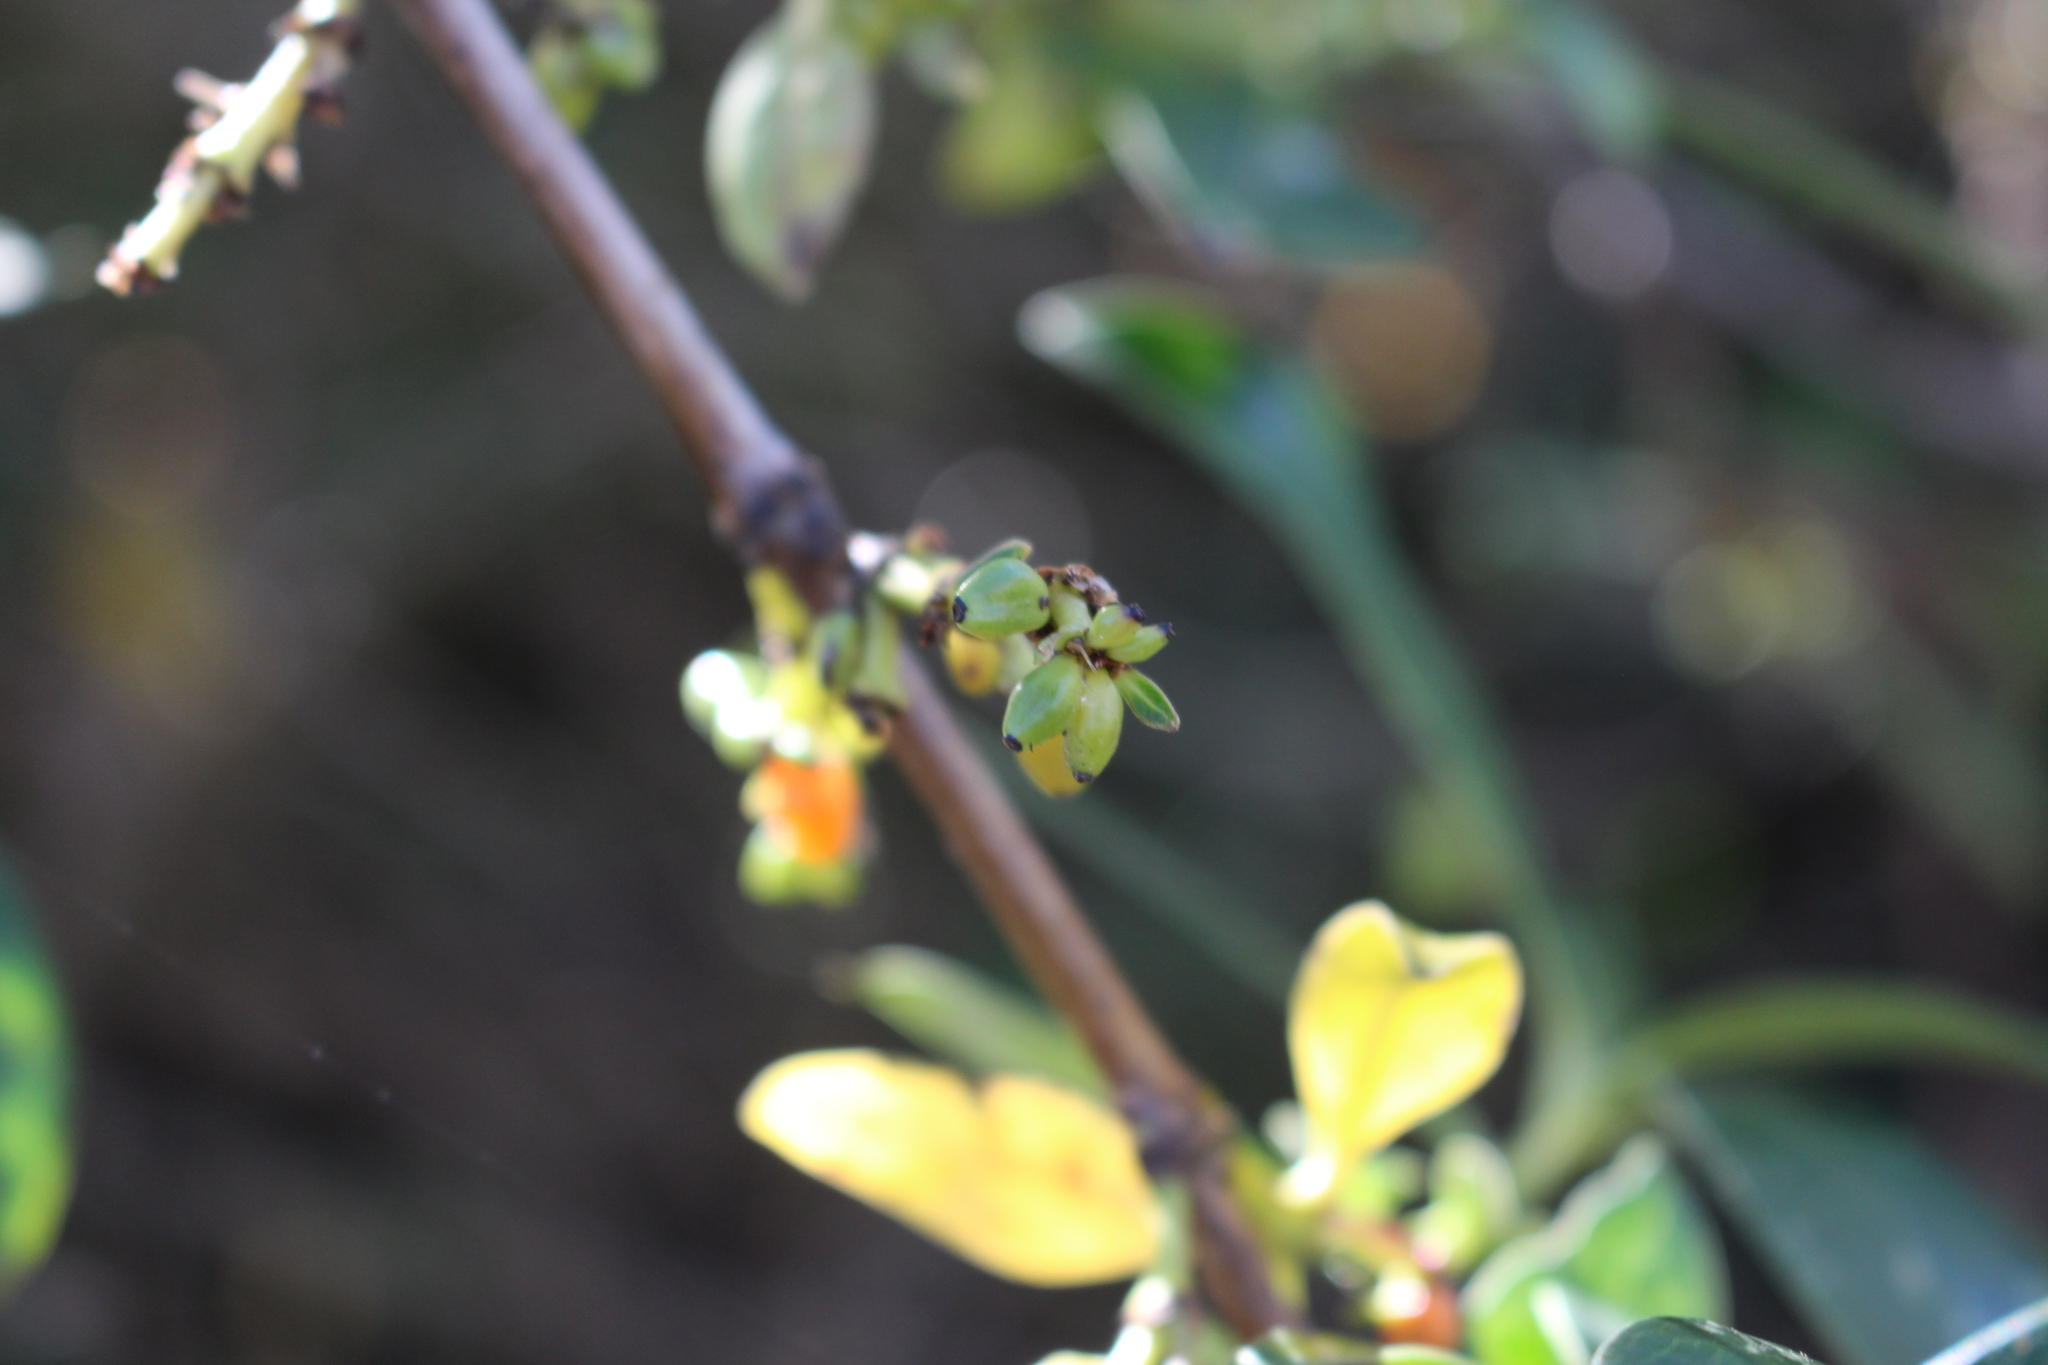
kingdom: Plantae
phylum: Tracheophyta
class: Magnoliopsida
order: Gentianales
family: Rubiaceae
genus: Coprosma
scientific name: Coprosma robusta
